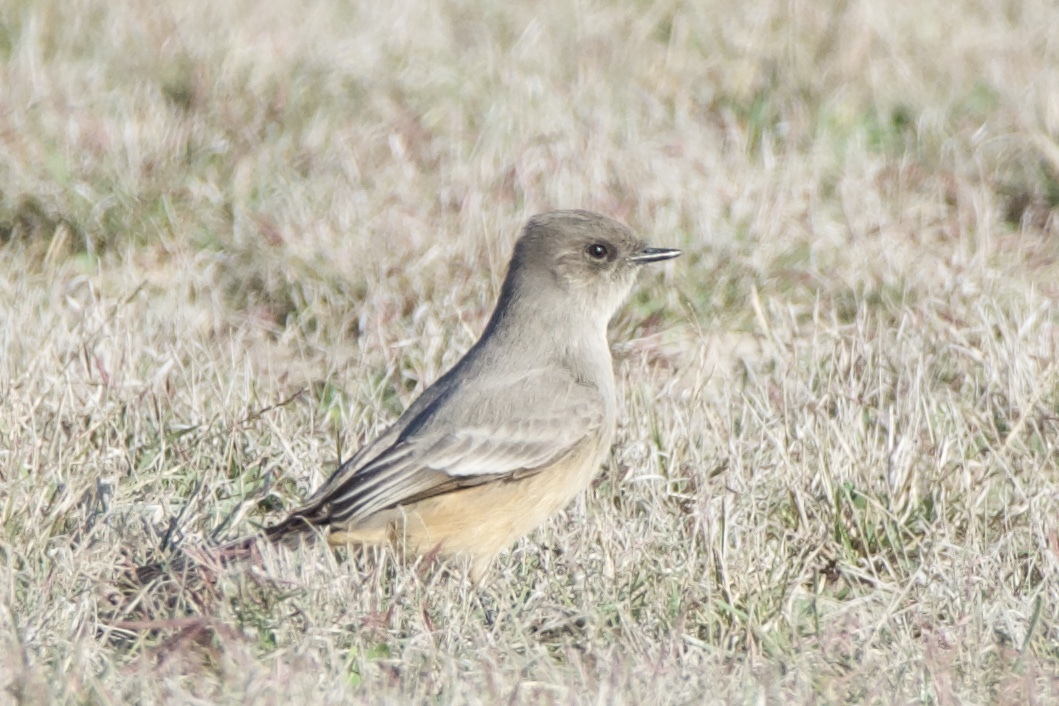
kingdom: Animalia
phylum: Chordata
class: Aves
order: Passeriformes
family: Tyrannidae
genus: Sayornis
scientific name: Sayornis saya
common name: Say's phoebe
